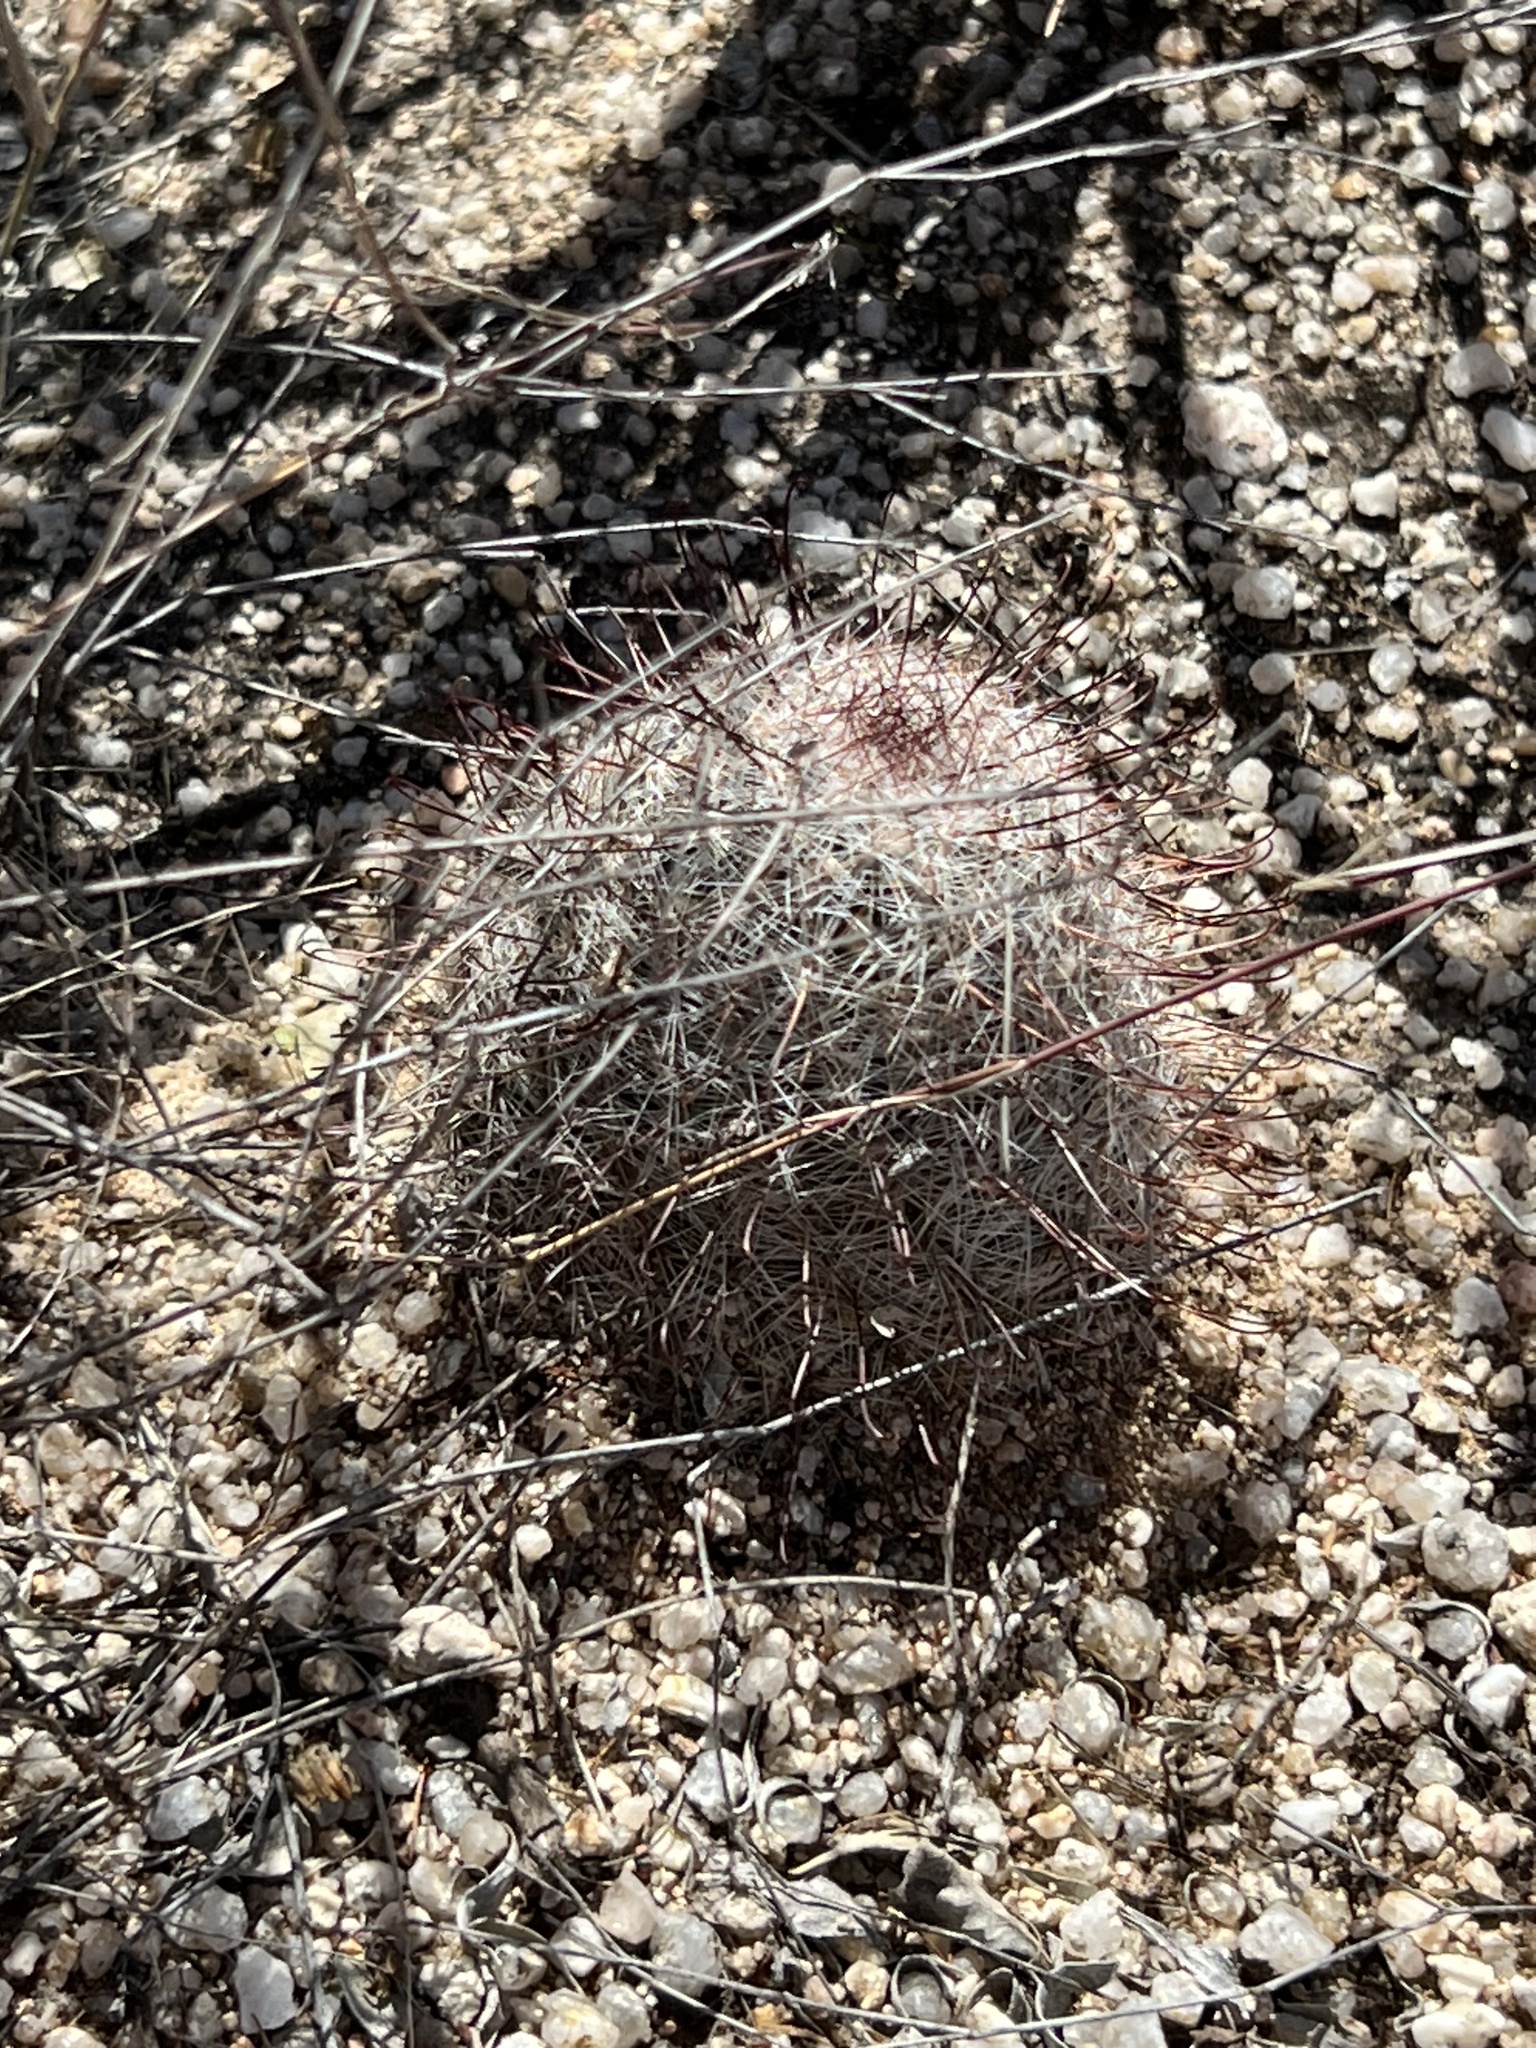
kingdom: Plantae
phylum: Tracheophyta
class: Magnoliopsida
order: Caryophyllales
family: Cactaceae
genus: Cochemiea
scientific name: Cochemiea grahamii
